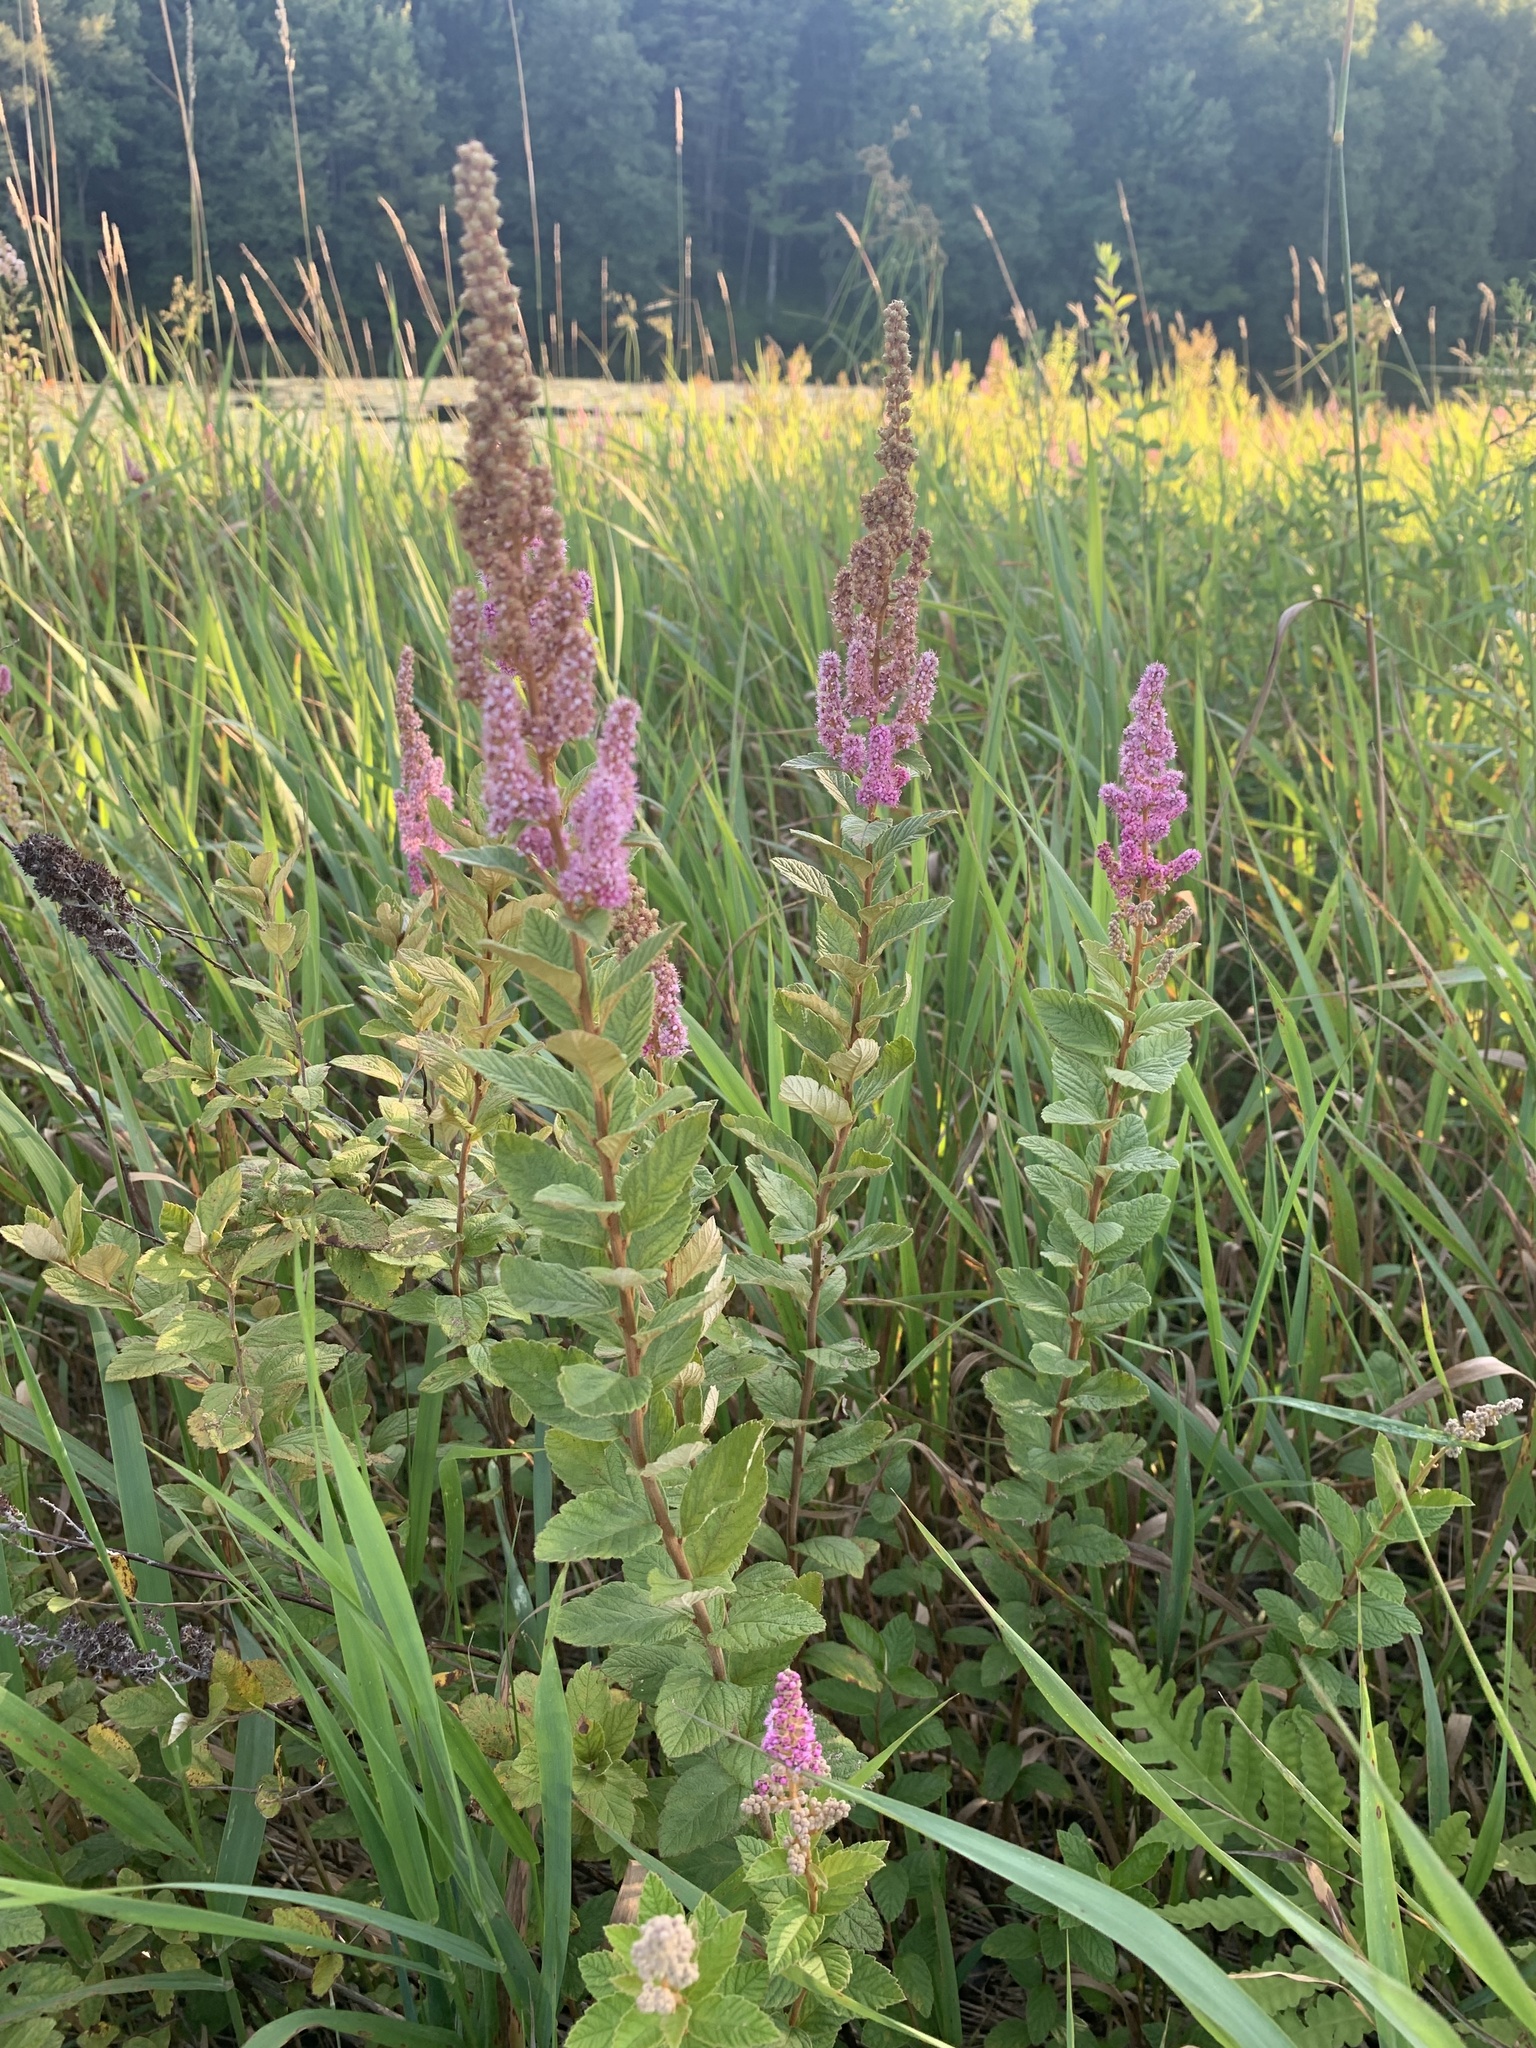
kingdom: Plantae
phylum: Tracheophyta
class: Magnoliopsida
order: Rosales
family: Rosaceae
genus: Spiraea
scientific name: Spiraea tomentosa
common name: Hardhack
